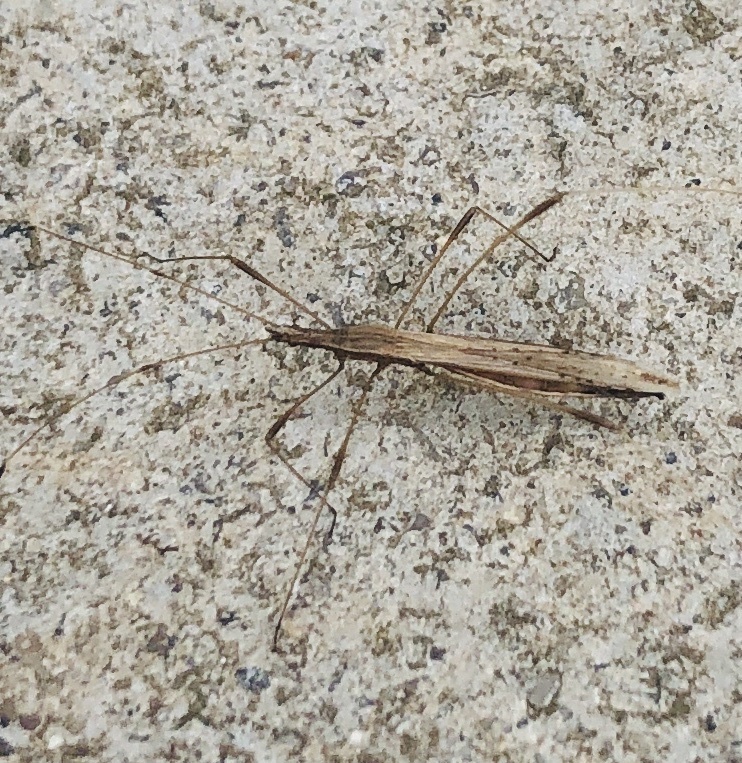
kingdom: Animalia
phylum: Arthropoda
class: Insecta
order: Hemiptera
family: Berytidae
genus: Neides
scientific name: Neides tipularius
